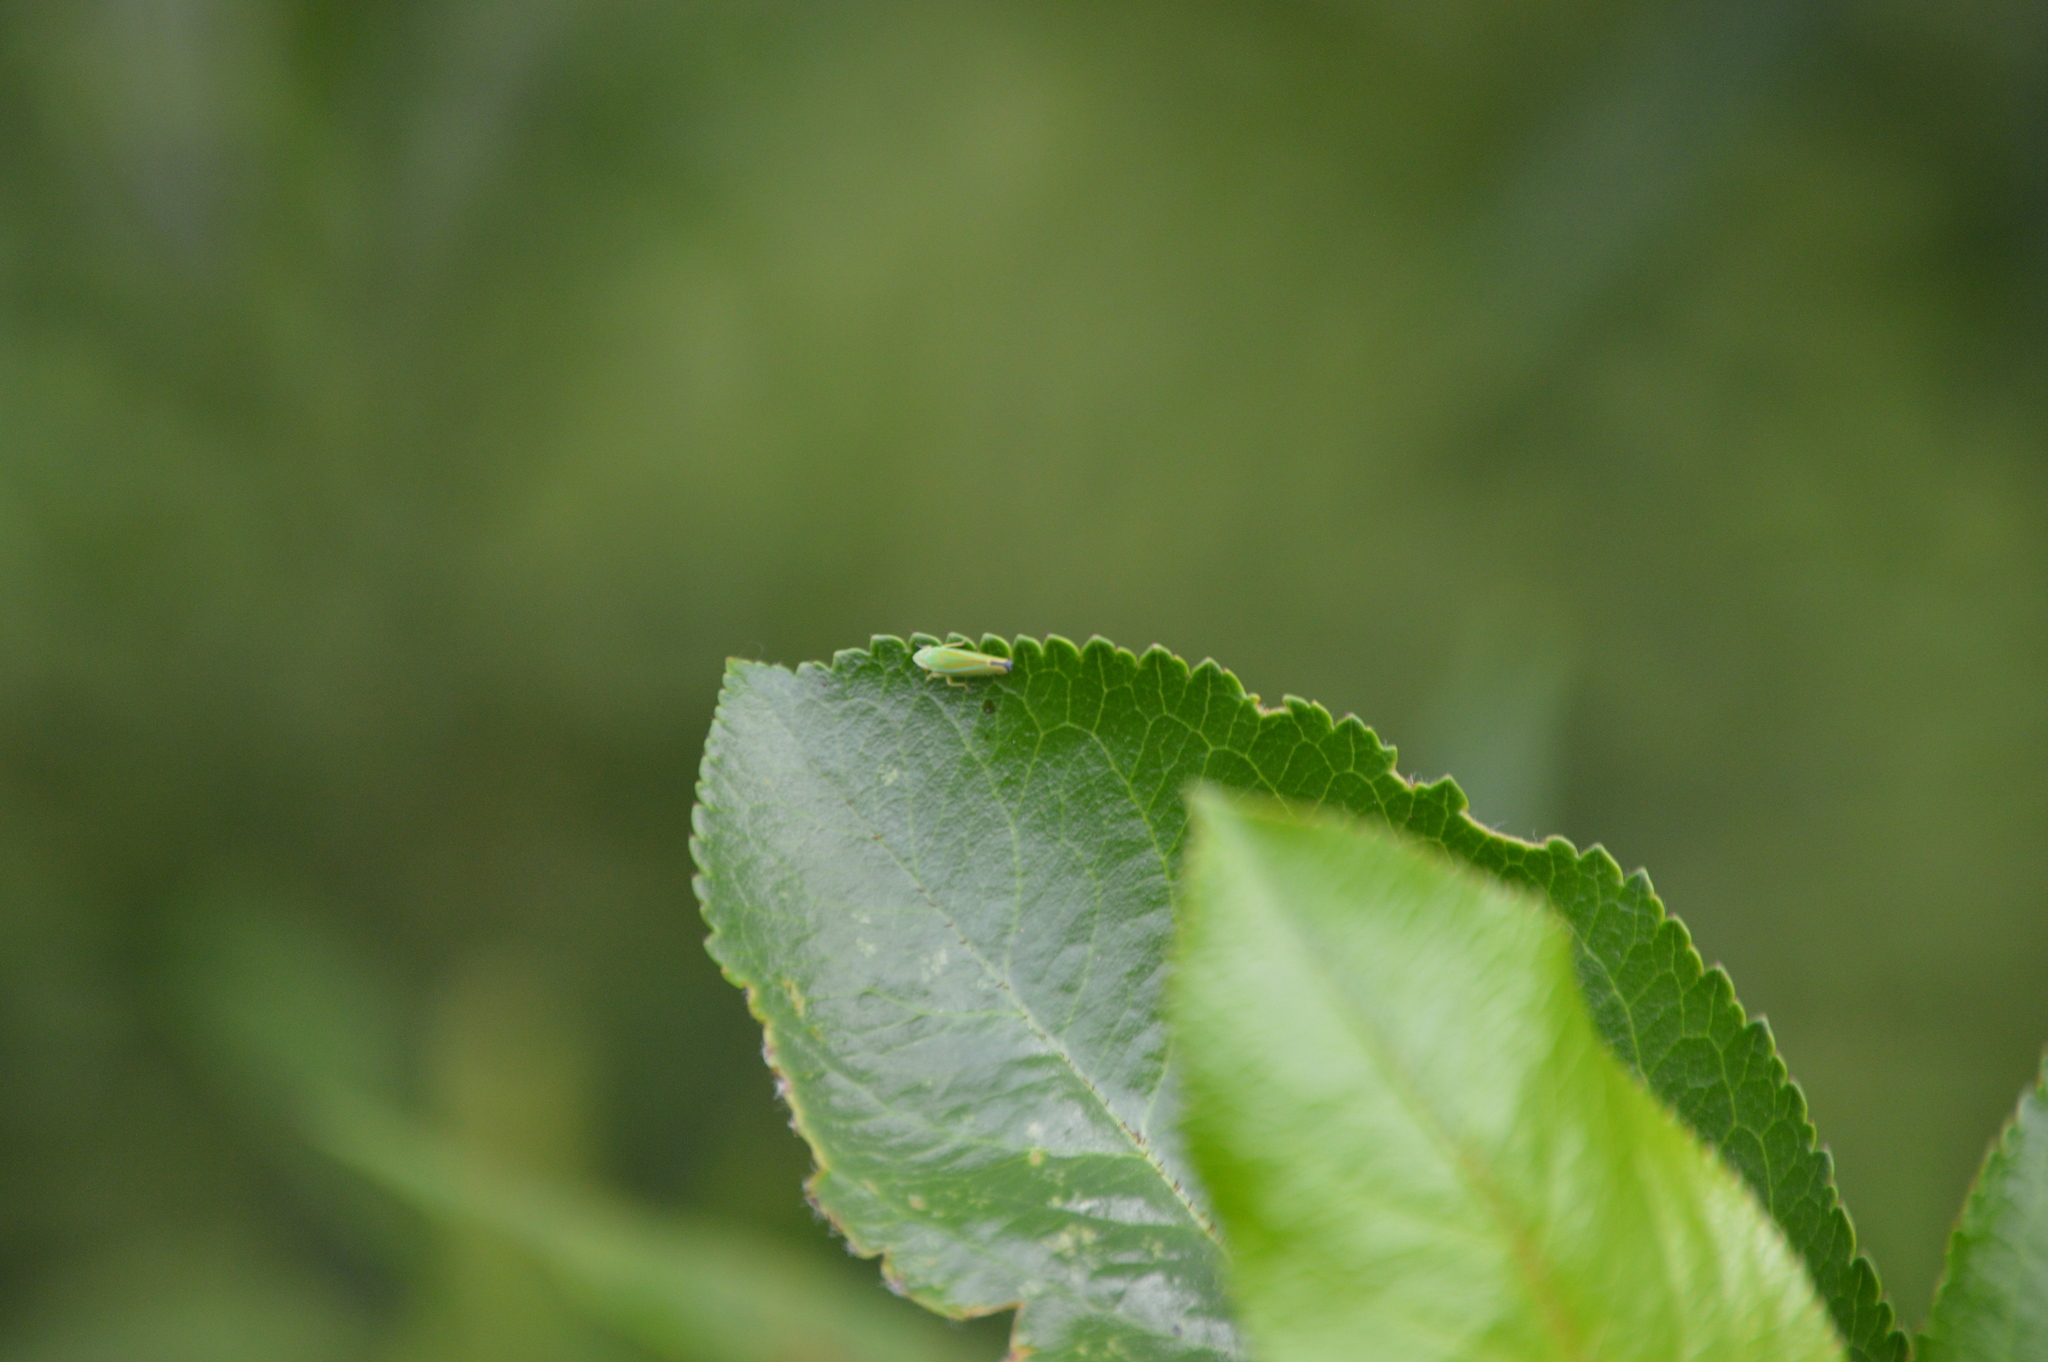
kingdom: Animalia
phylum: Arthropoda
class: Insecta
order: Hemiptera
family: Cicadellidae
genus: Graphocephala
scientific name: Graphocephala versuta
